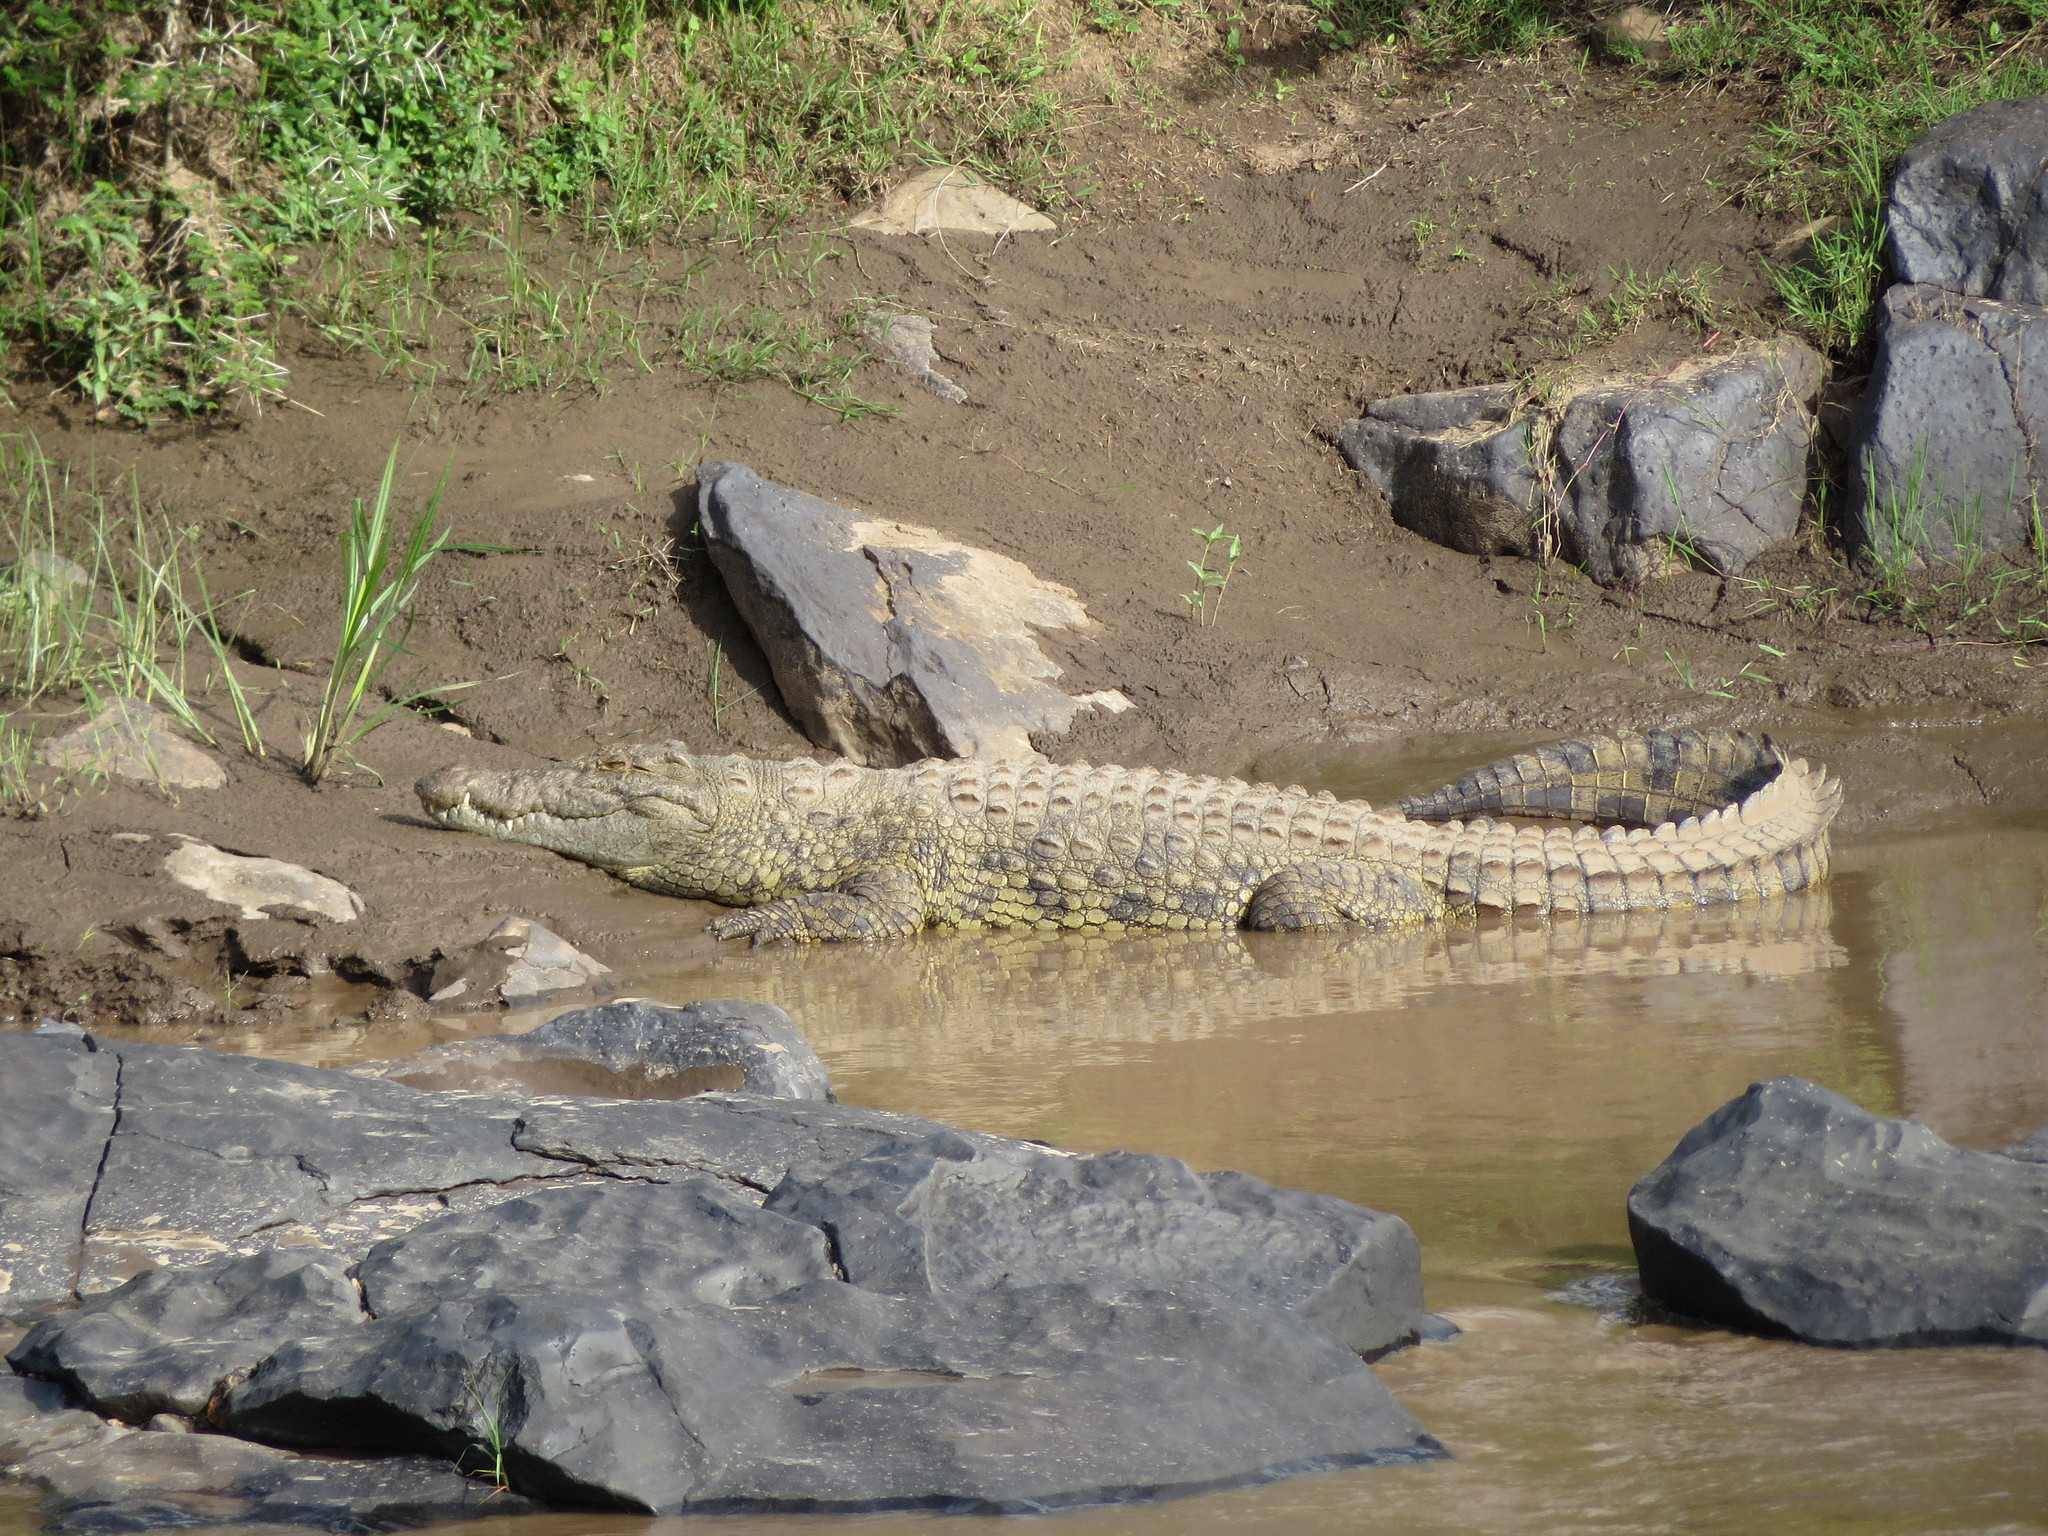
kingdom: Animalia
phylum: Chordata
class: Crocodylia
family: Crocodylidae
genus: Crocodylus
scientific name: Crocodylus niloticus
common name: Nile crocodile
